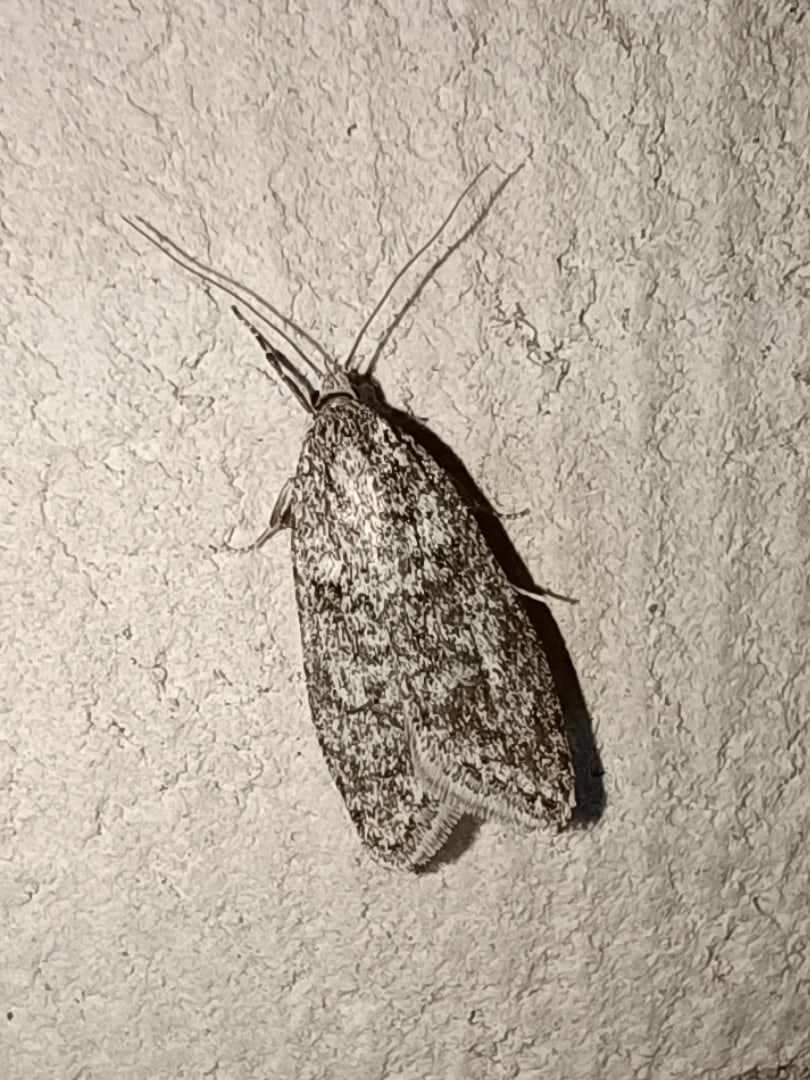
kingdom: Animalia
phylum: Arthropoda
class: Insecta
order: Lepidoptera
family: Depressariidae
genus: Semioscopis
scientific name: Semioscopis strigulana
